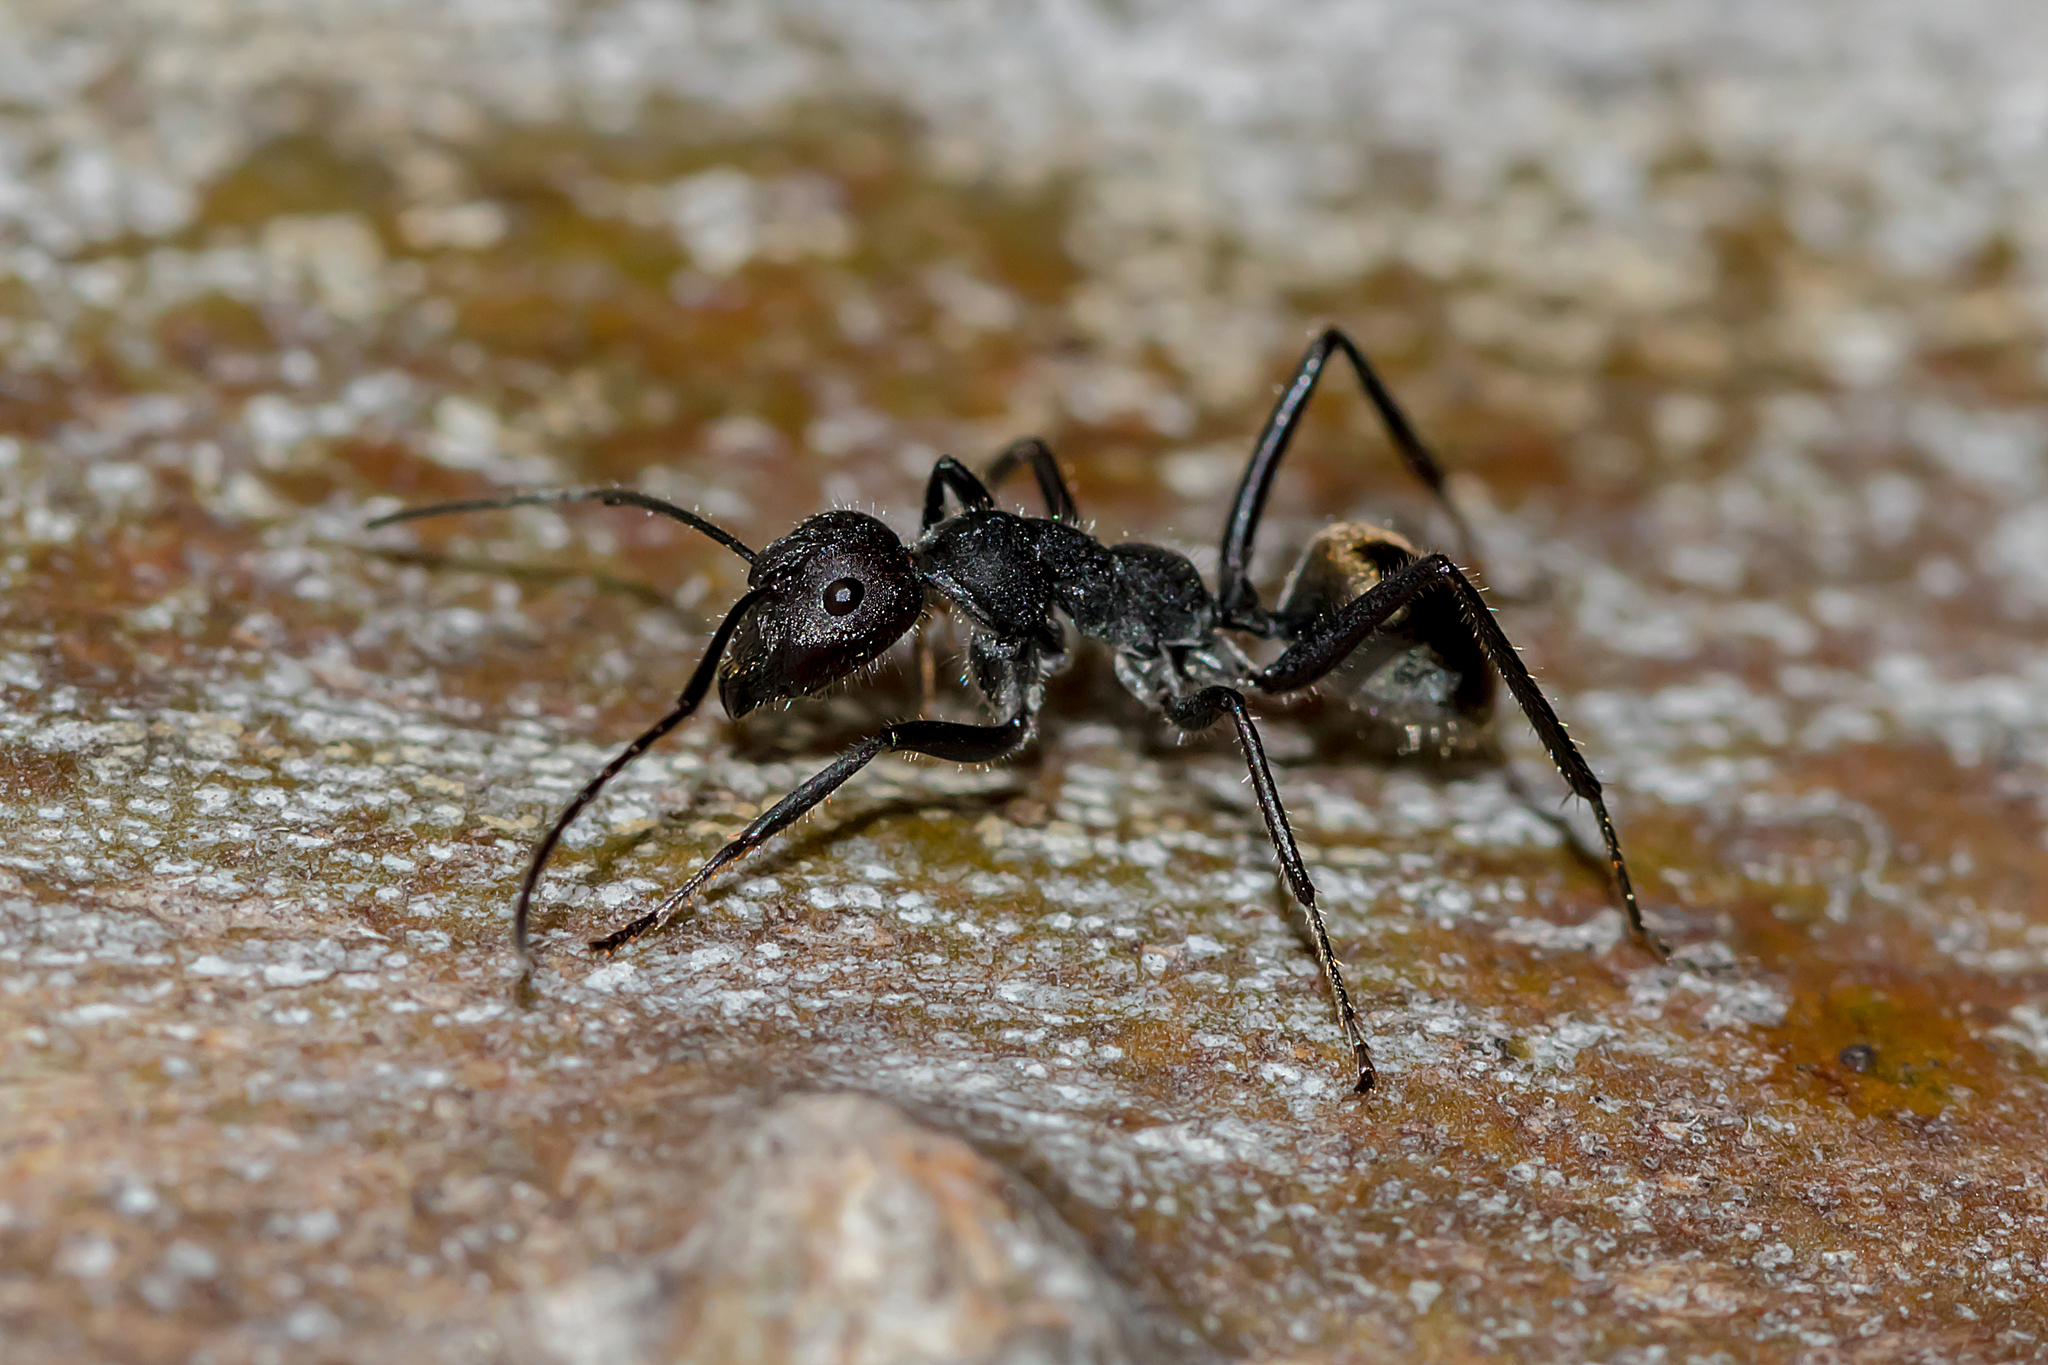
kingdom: Animalia
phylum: Arthropoda
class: Insecta
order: Hymenoptera
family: Formicidae
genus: Camponotus
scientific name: Camponotus suffusus
